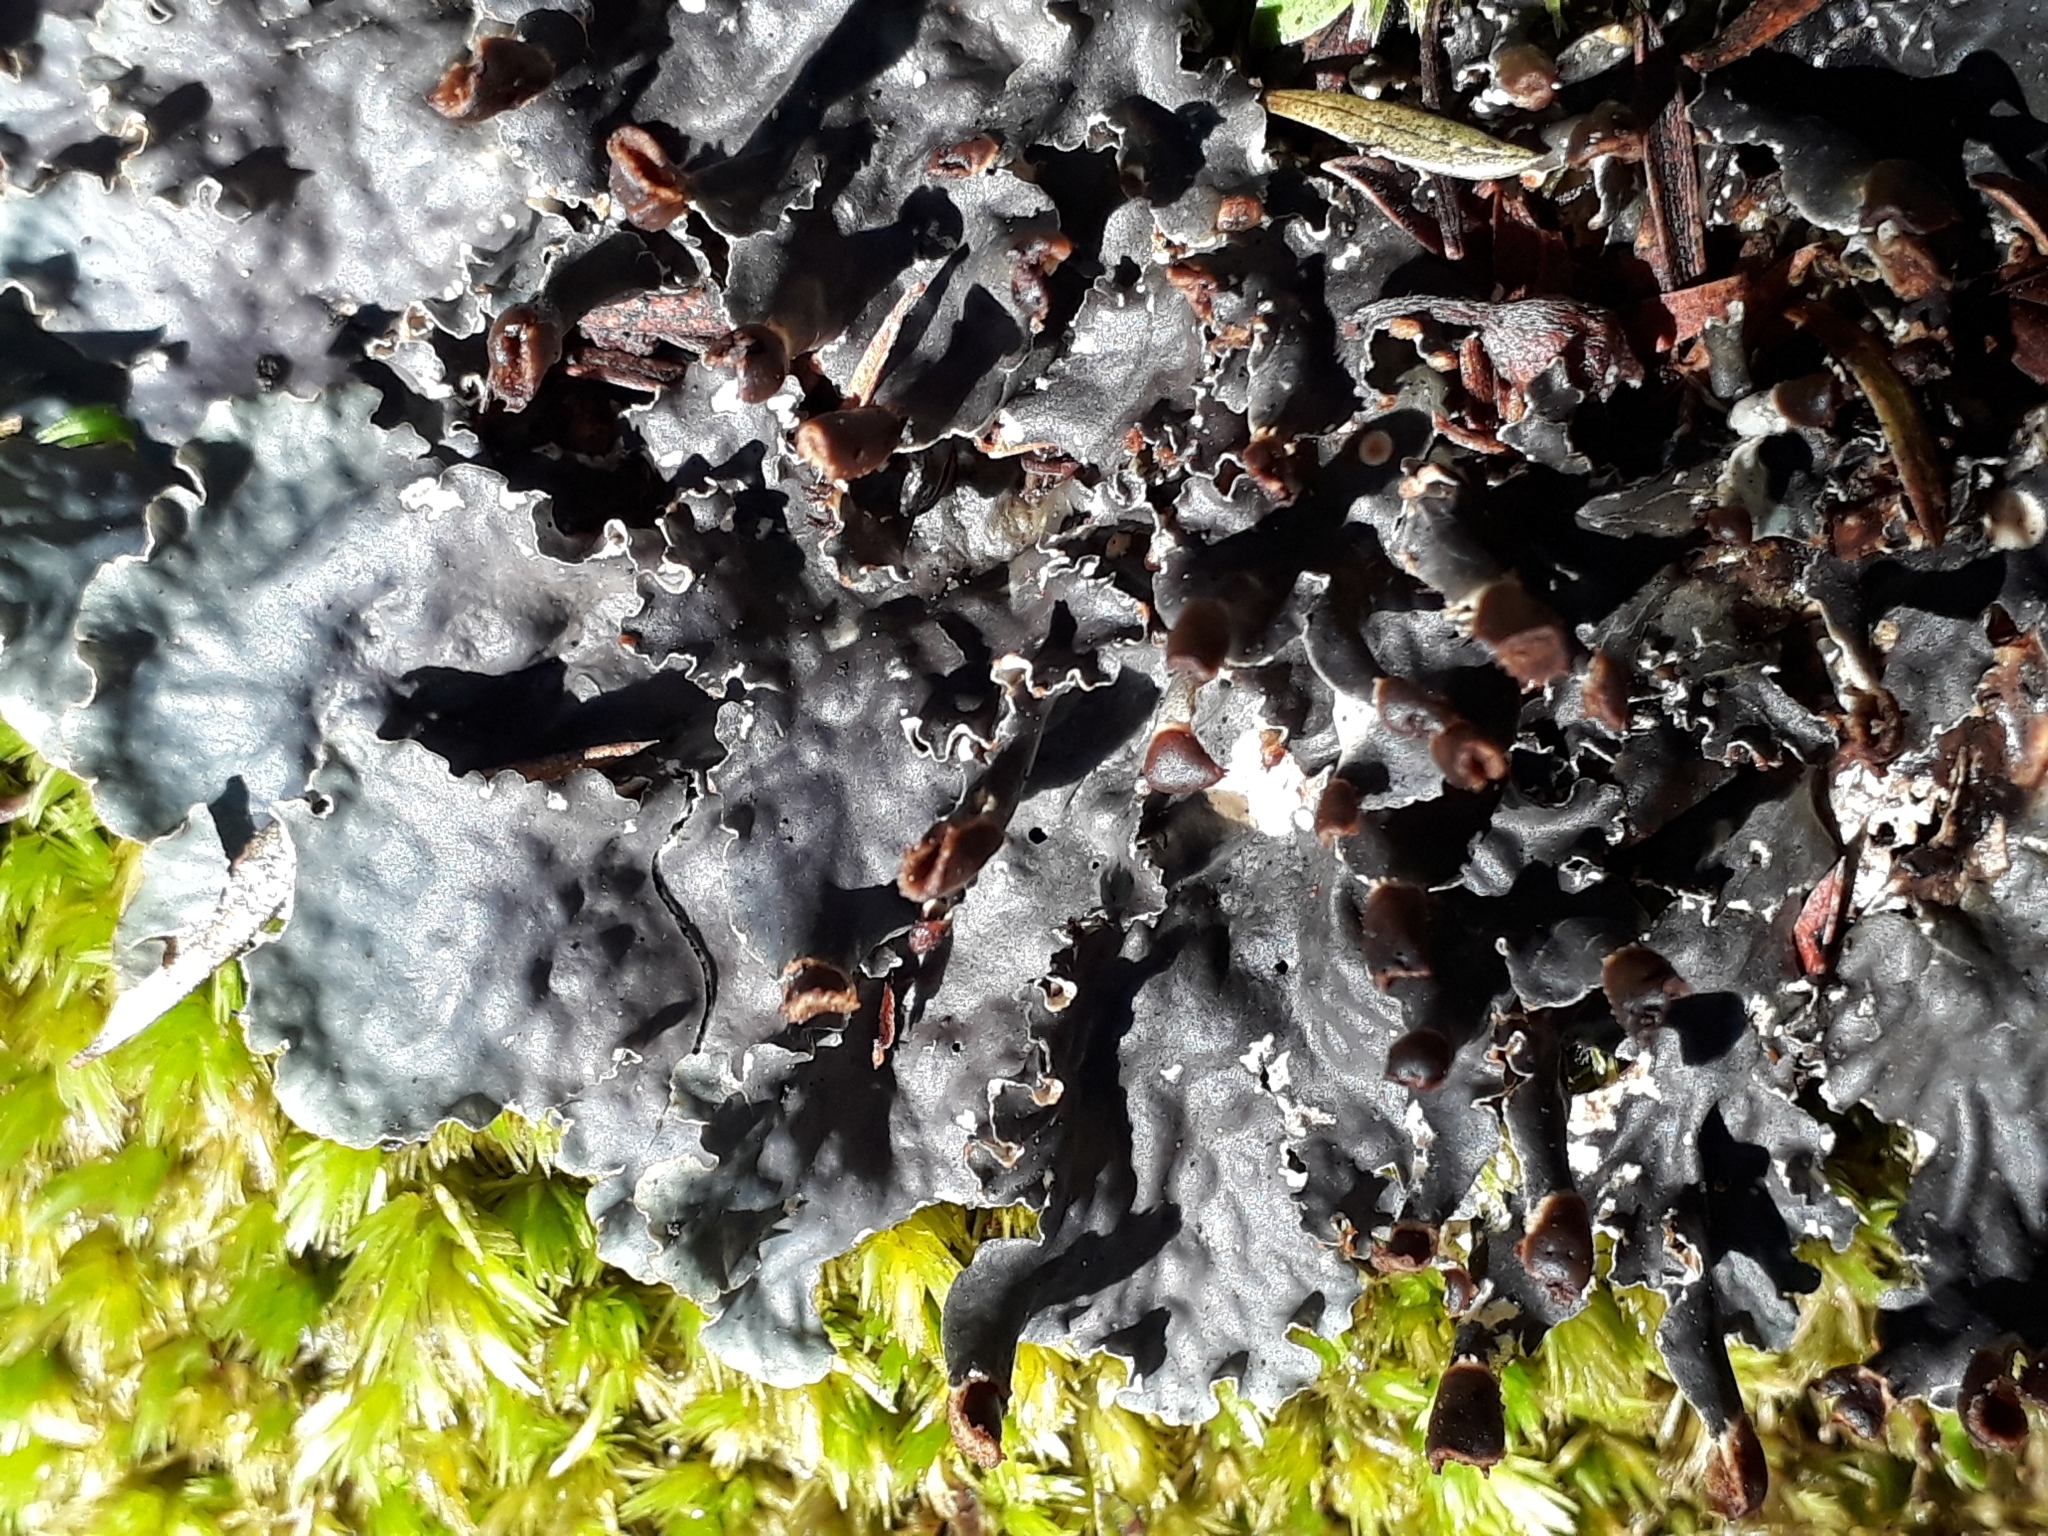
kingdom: Fungi
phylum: Ascomycota
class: Lecanoromycetes
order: Peltigerales
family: Peltigeraceae
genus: Peltigera
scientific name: Peltigera nana
